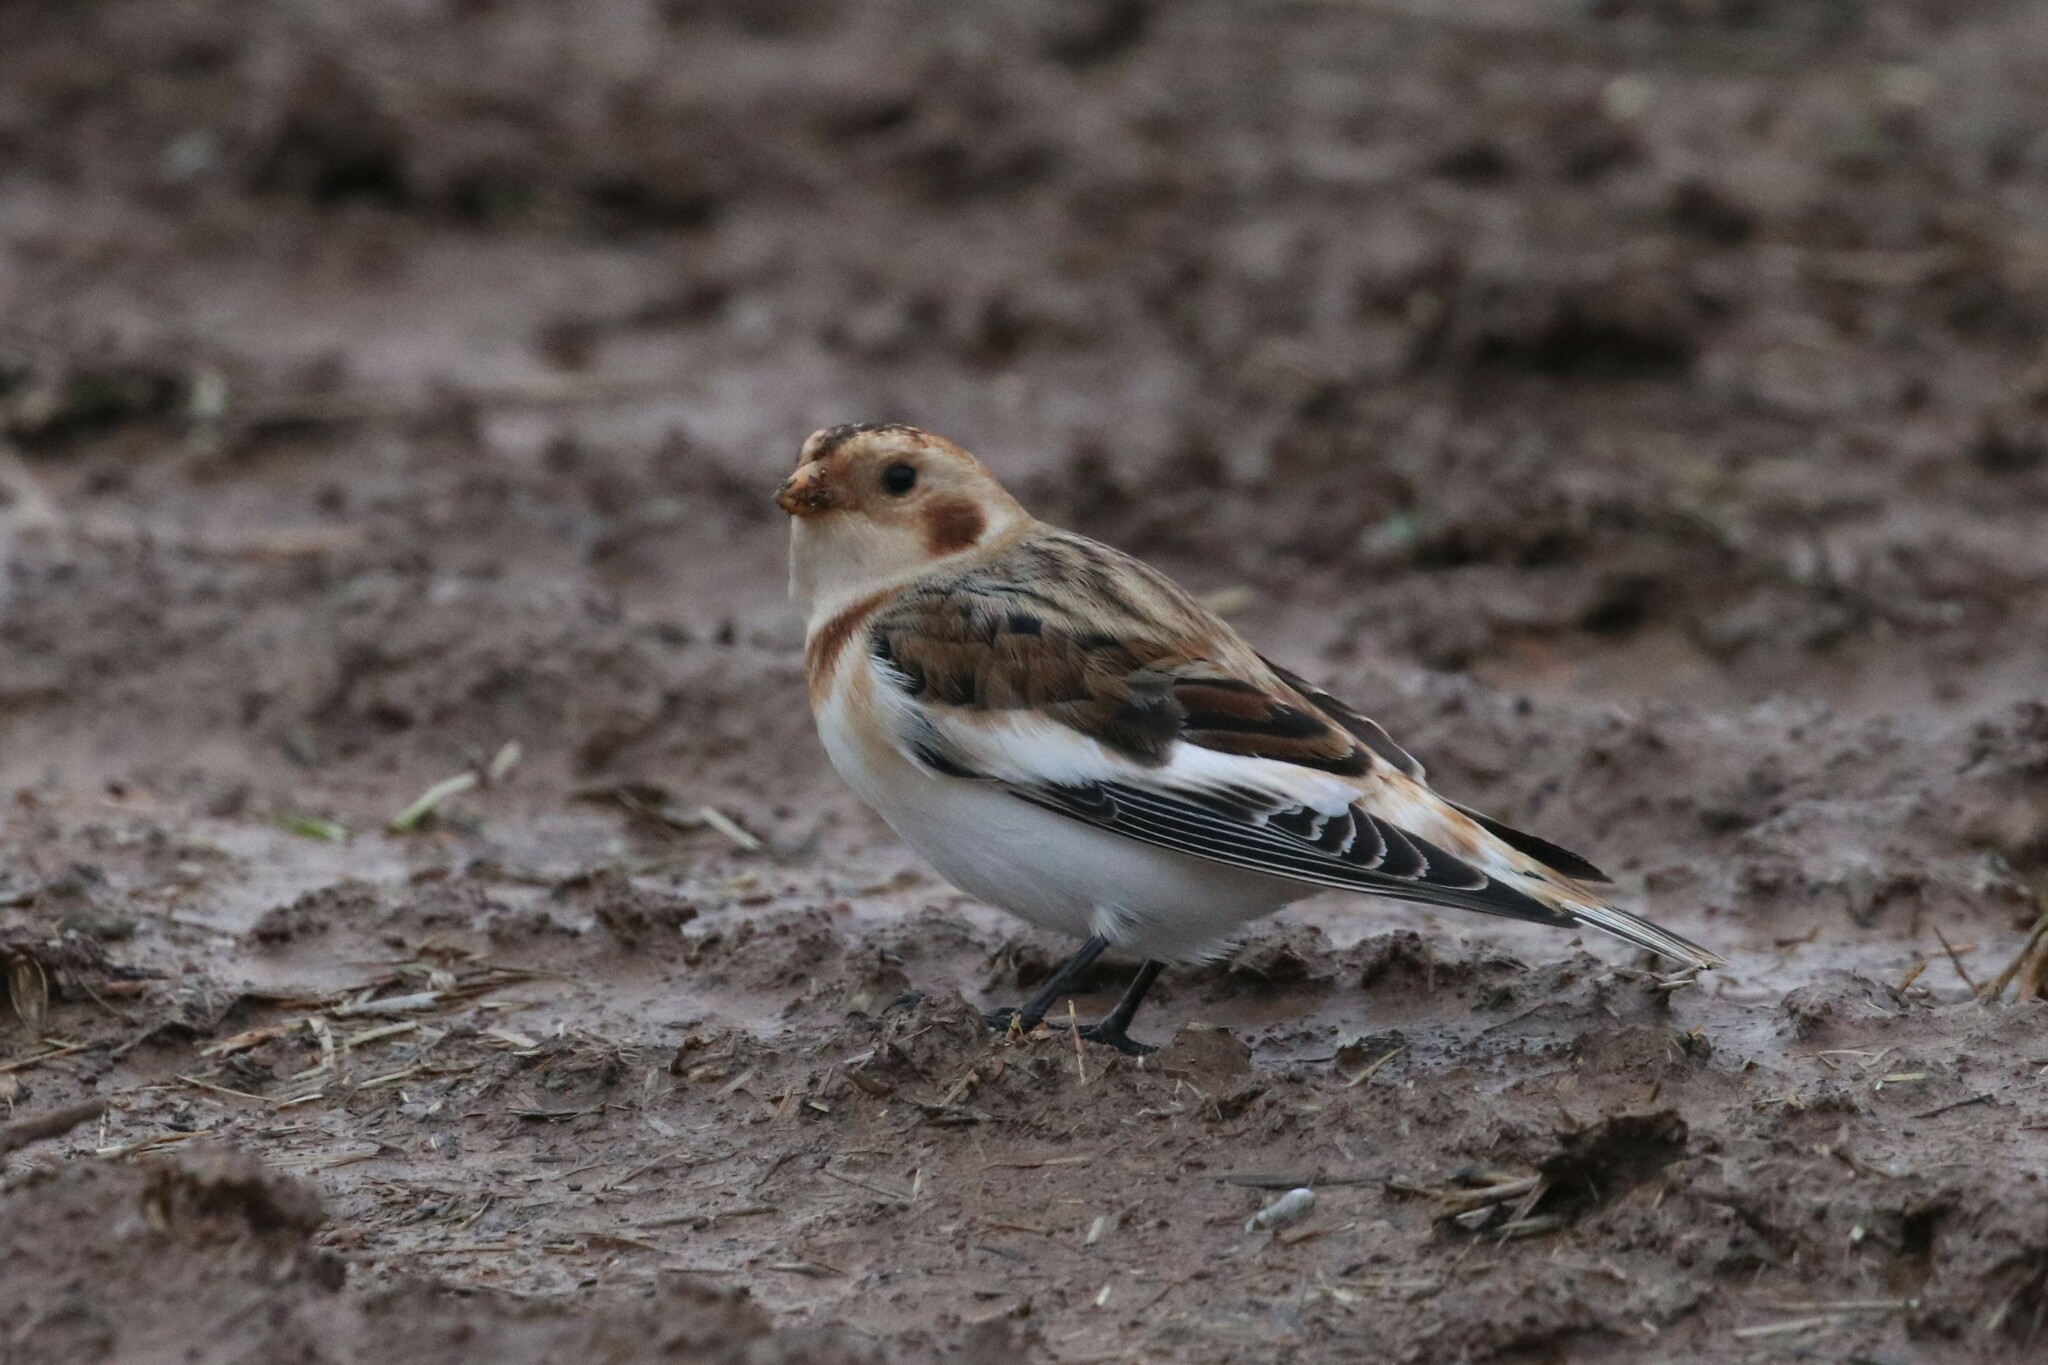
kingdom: Animalia
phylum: Chordata
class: Aves
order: Passeriformes
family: Calcariidae
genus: Plectrophenax
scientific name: Plectrophenax nivalis
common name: Snow bunting
